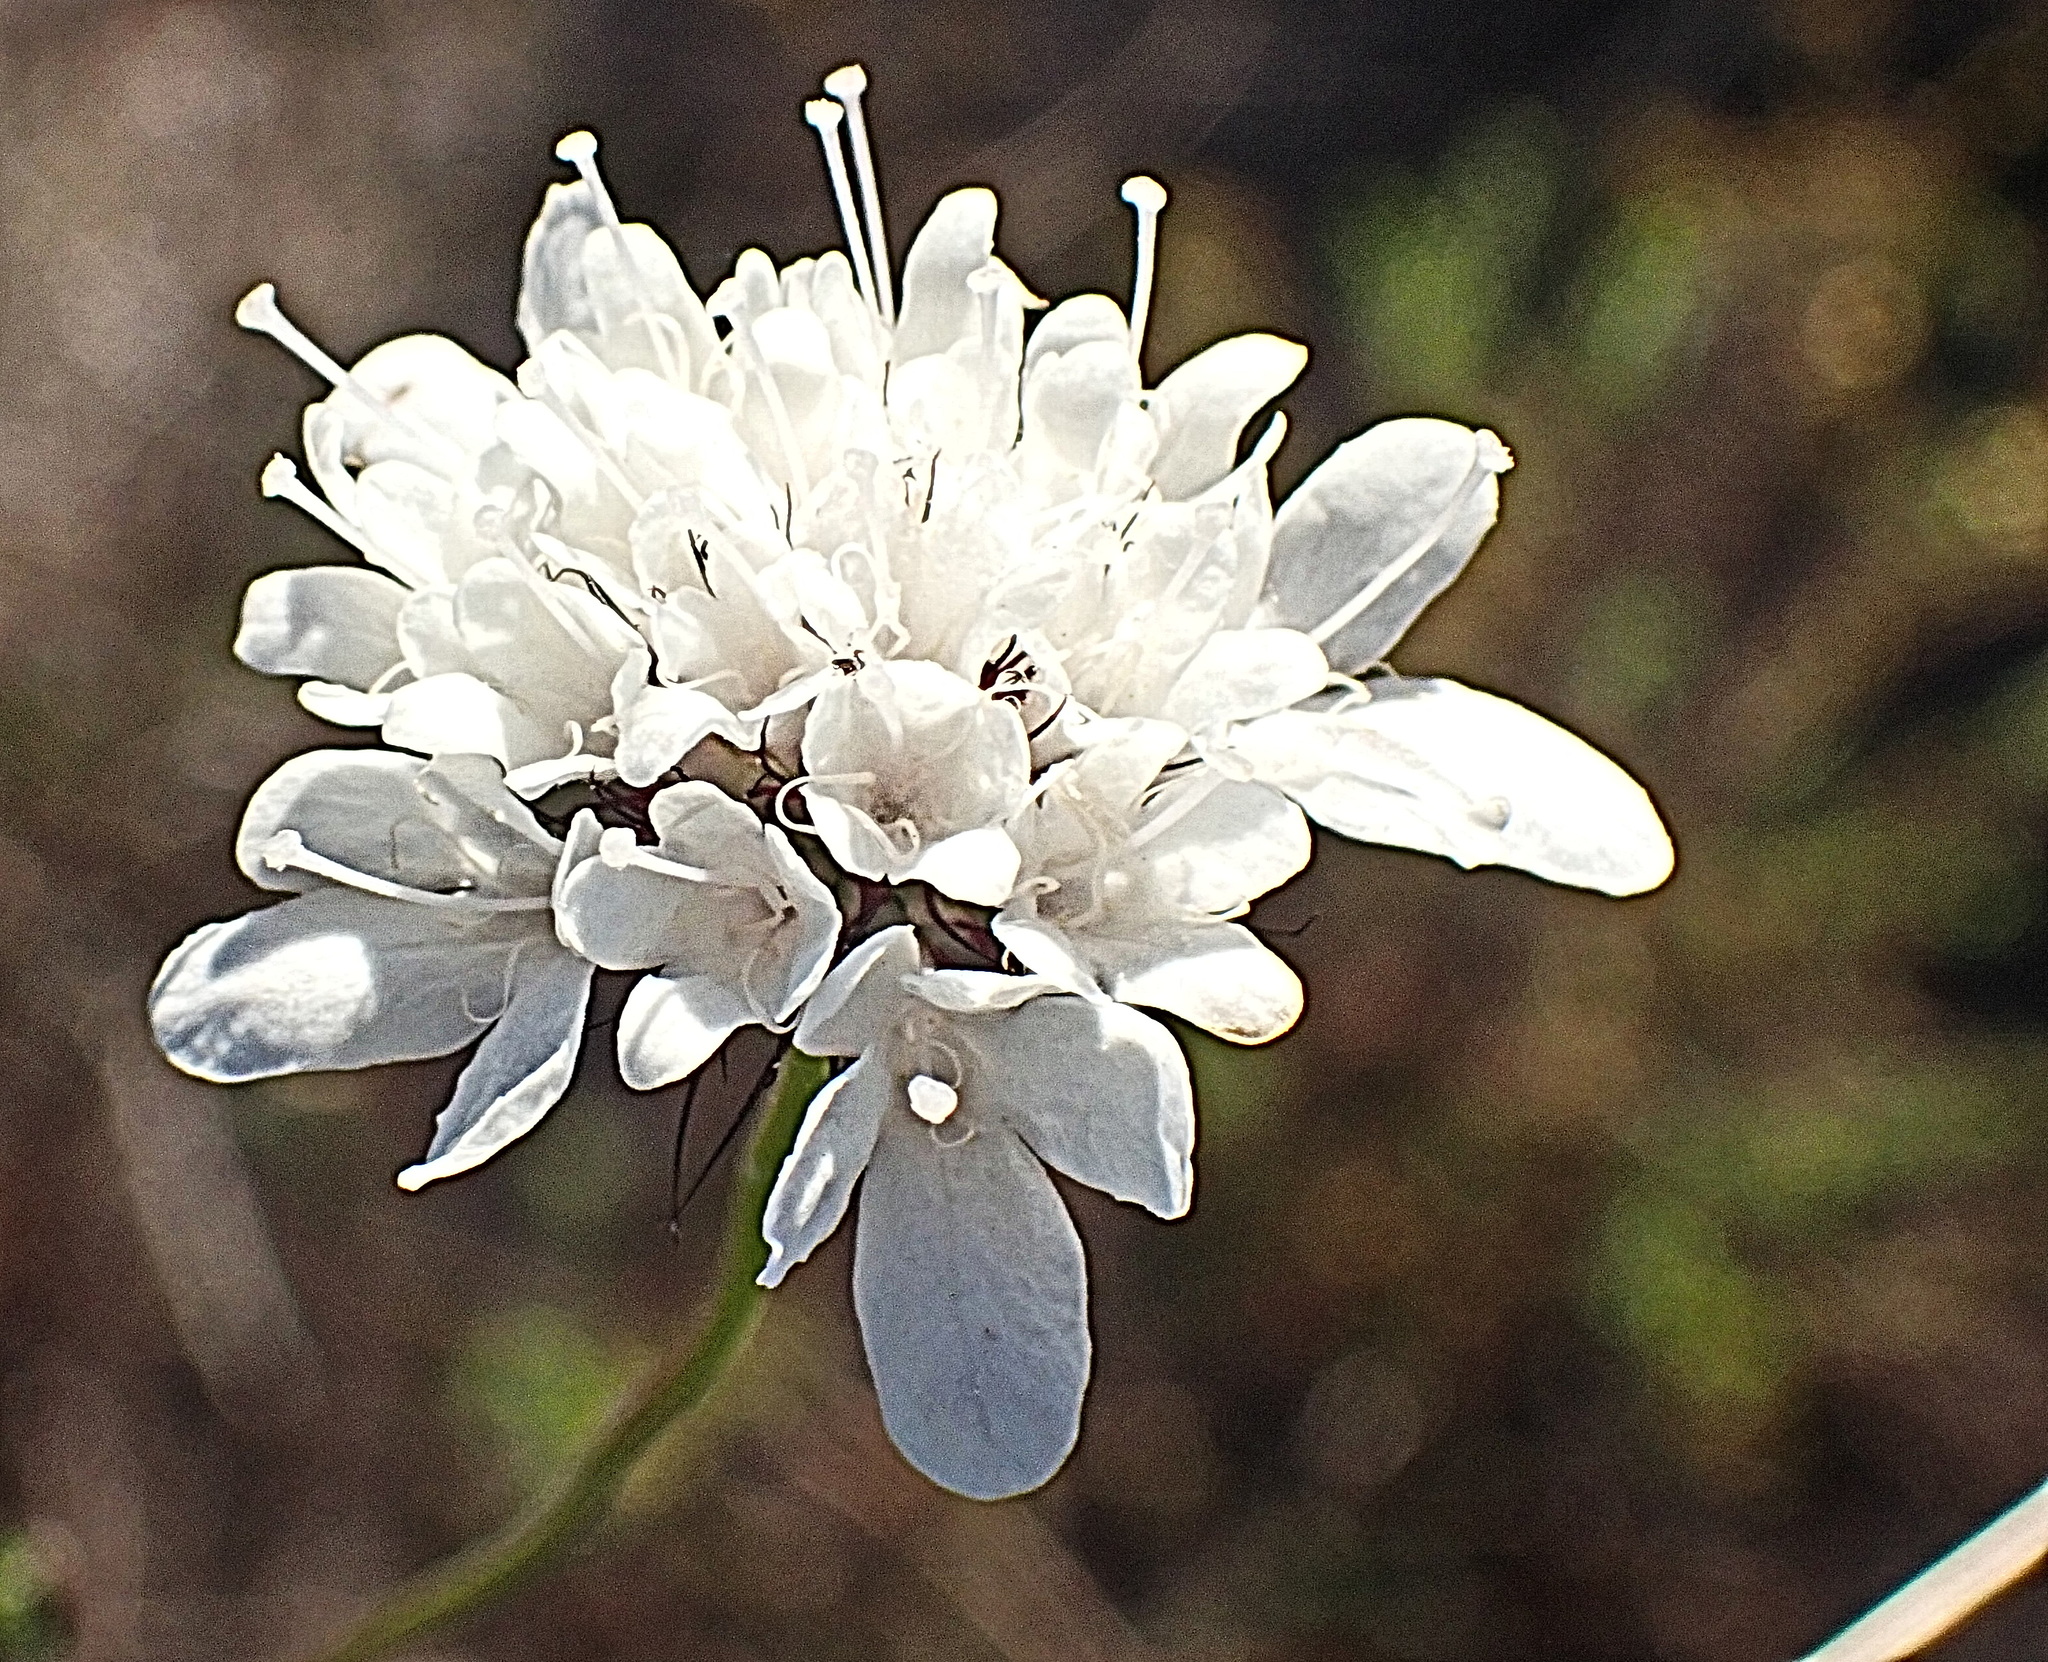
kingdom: Plantae
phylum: Tracheophyta
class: Magnoliopsida
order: Dipsacales
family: Caprifoliaceae
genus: Scabiosa
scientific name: Scabiosa columbaria
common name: Small scabious
